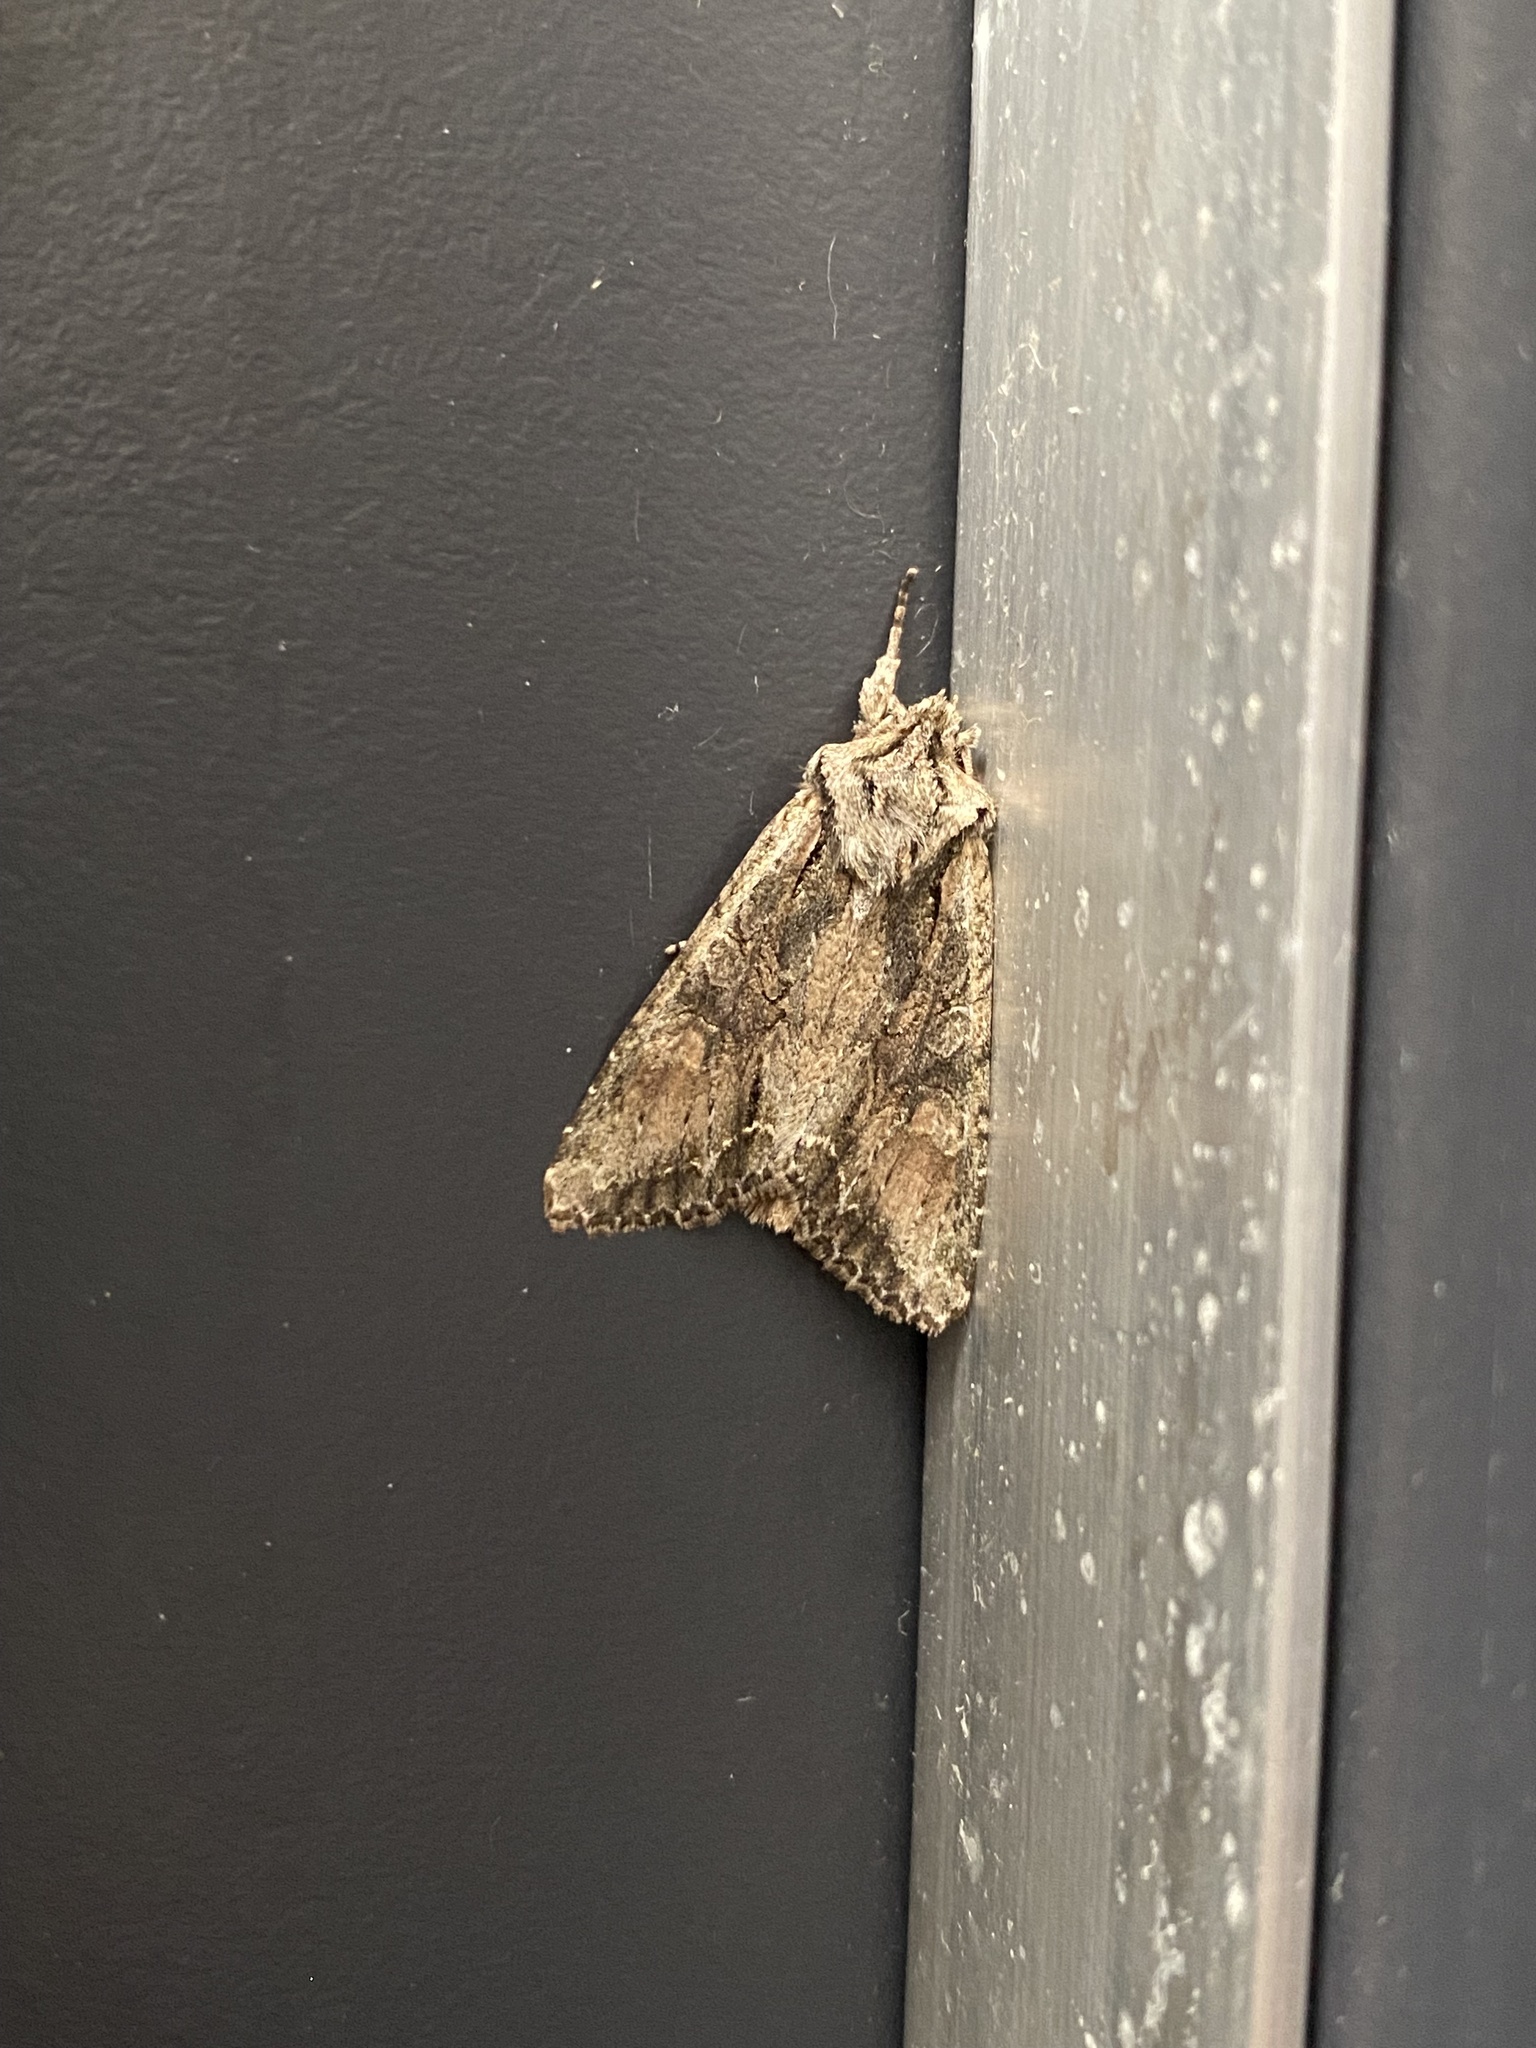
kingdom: Animalia
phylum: Arthropoda
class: Insecta
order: Lepidoptera
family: Noctuidae
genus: Ichneutica
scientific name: Ichneutica mutans
